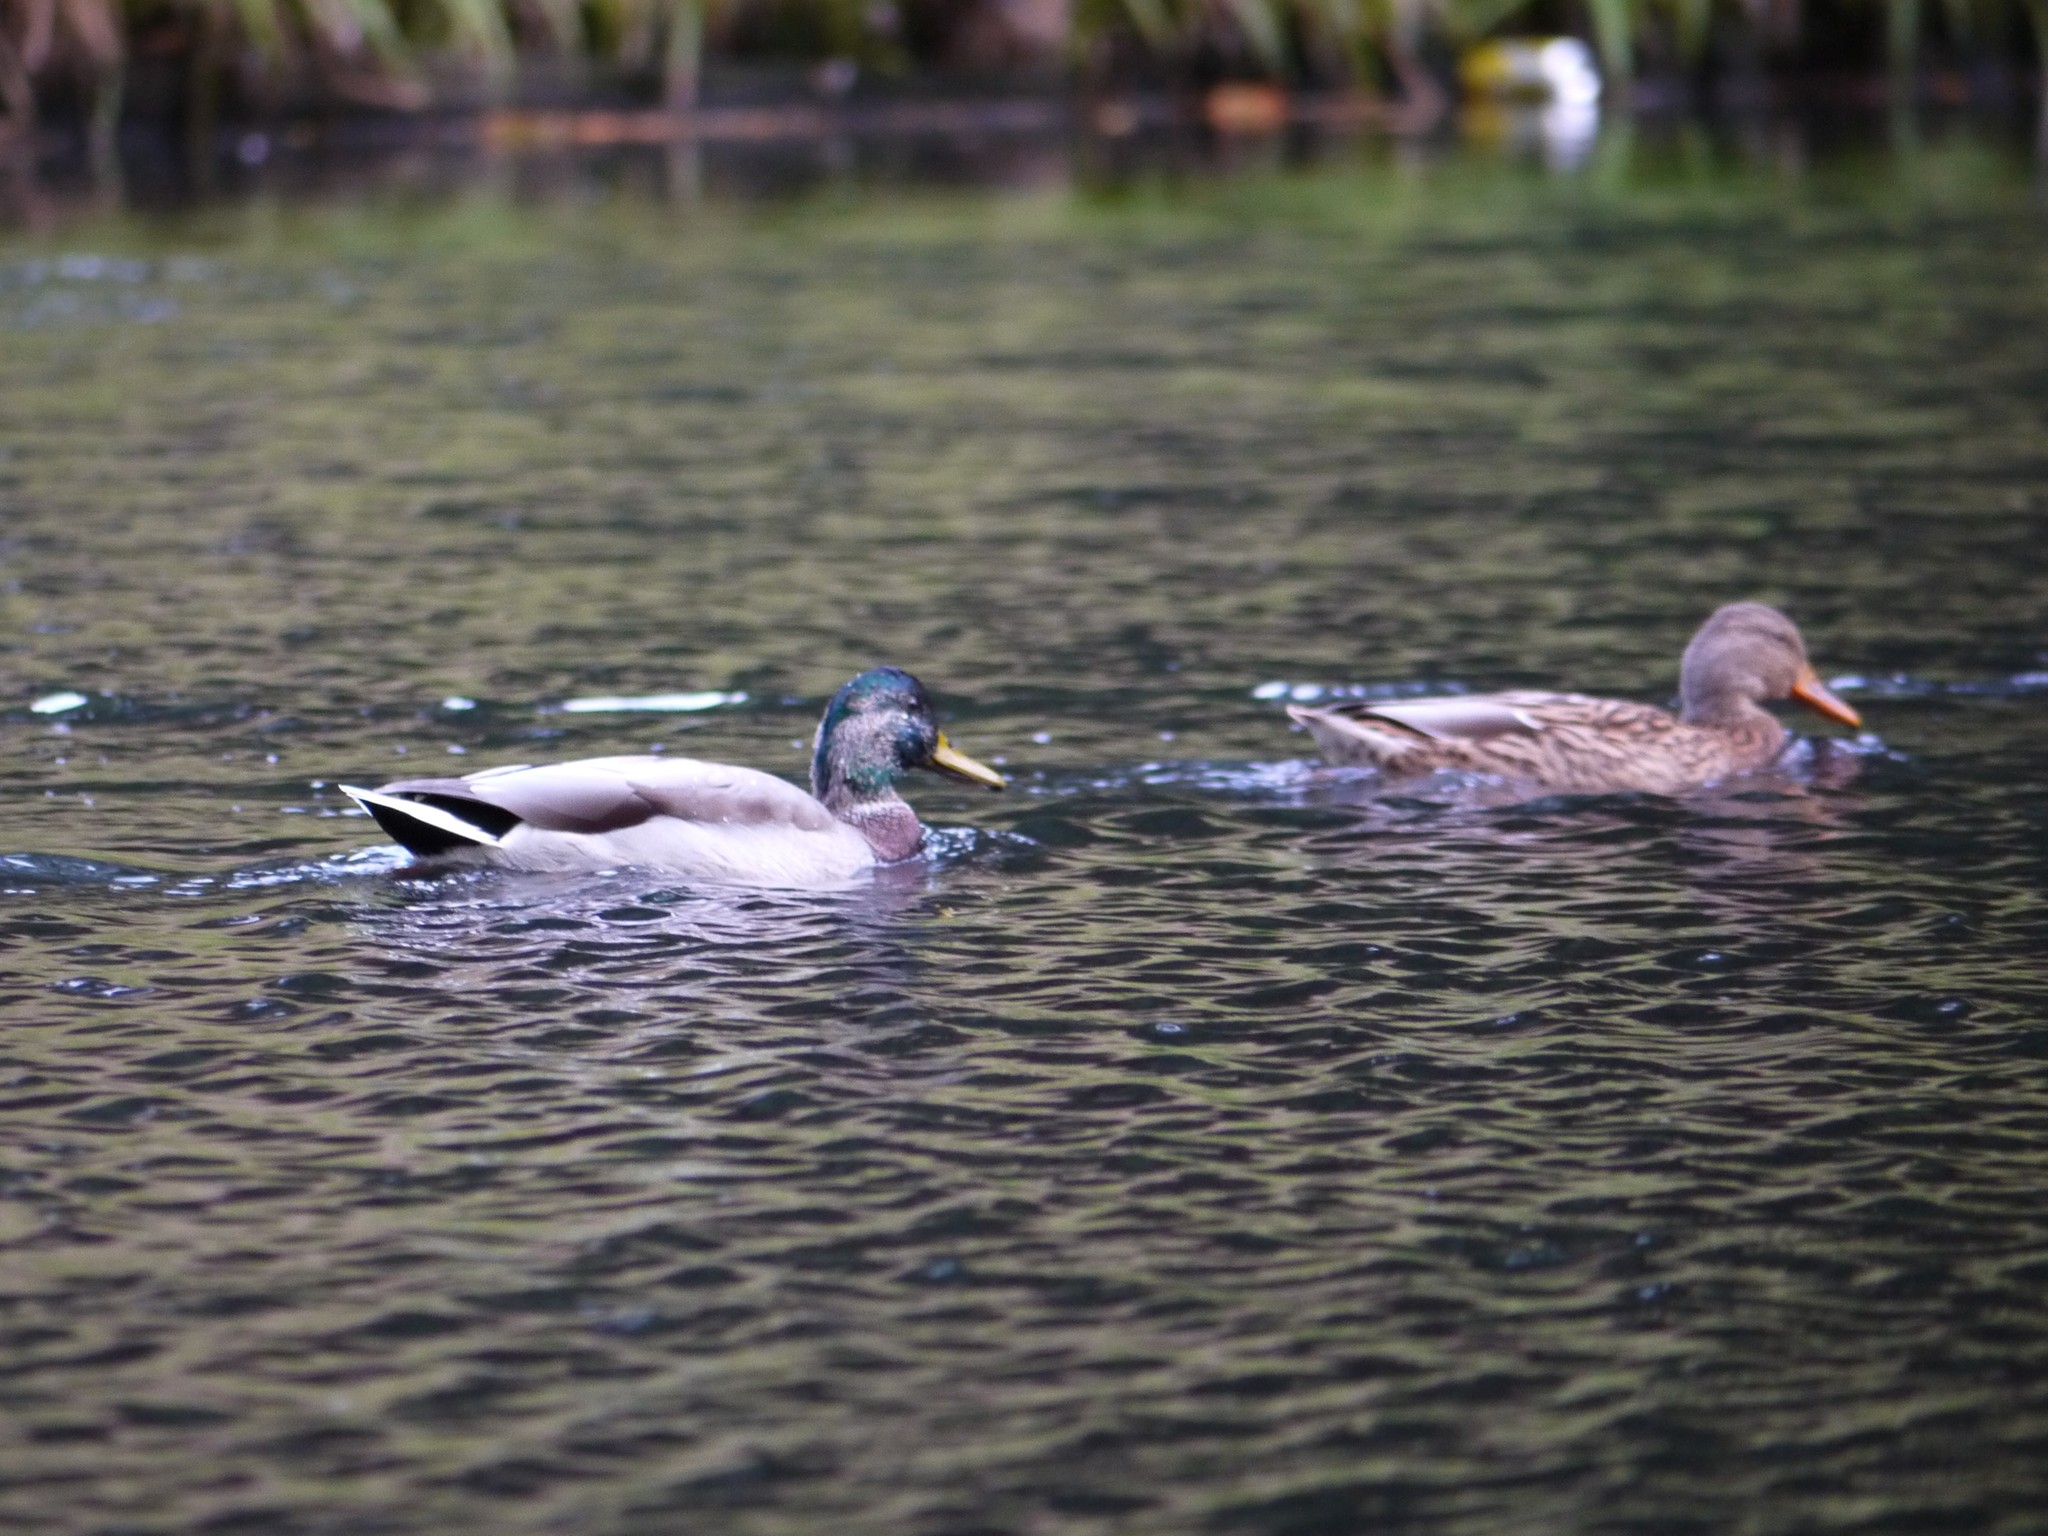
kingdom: Animalia
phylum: Chordata
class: Aves
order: Anseriformes
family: Anatidae
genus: Anas
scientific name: Anas platyrhynchos
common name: Mallard
